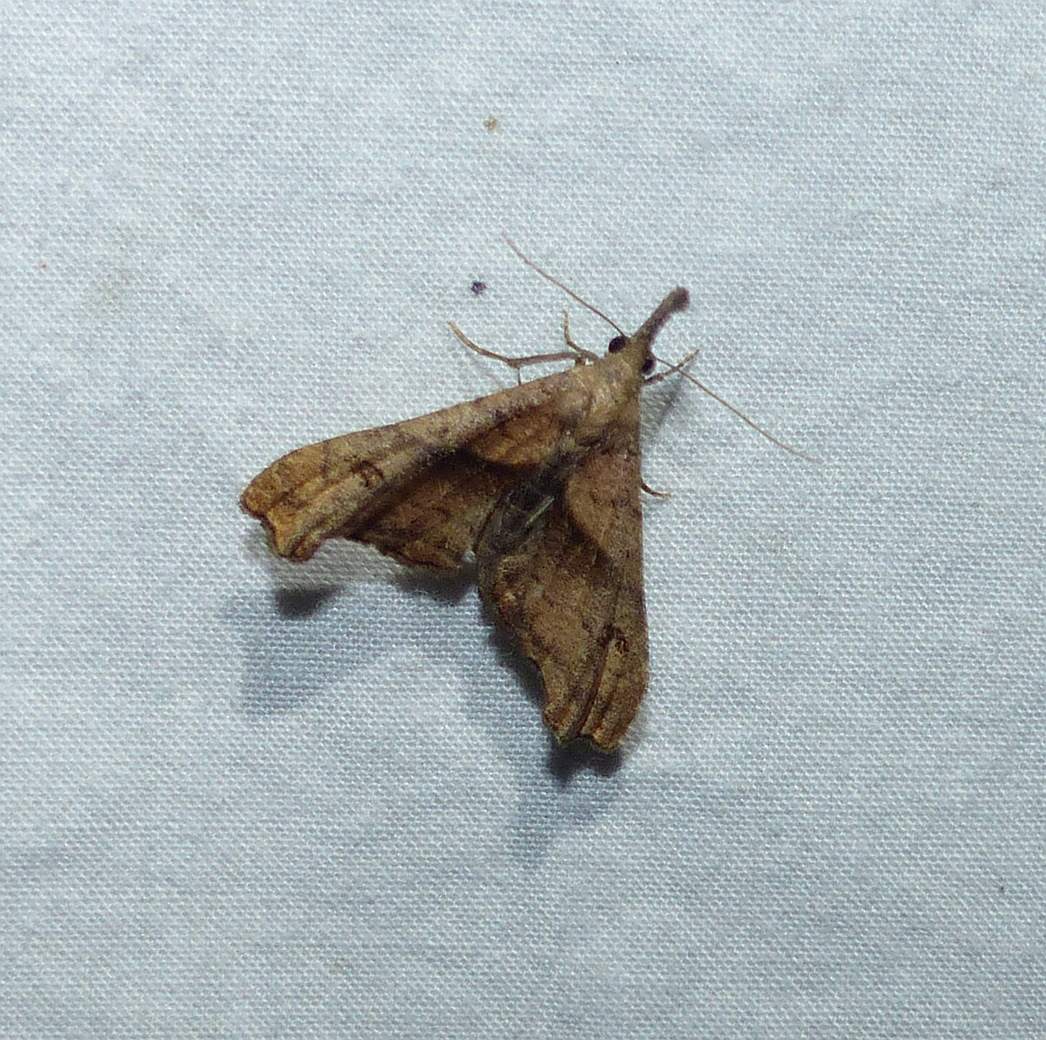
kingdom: Animalia
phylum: Arthropoda
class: Insecta
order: Lepidoptera
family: Erebidae
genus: Palthis
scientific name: Palthis angulalis
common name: Dark-spotted palthis moth
